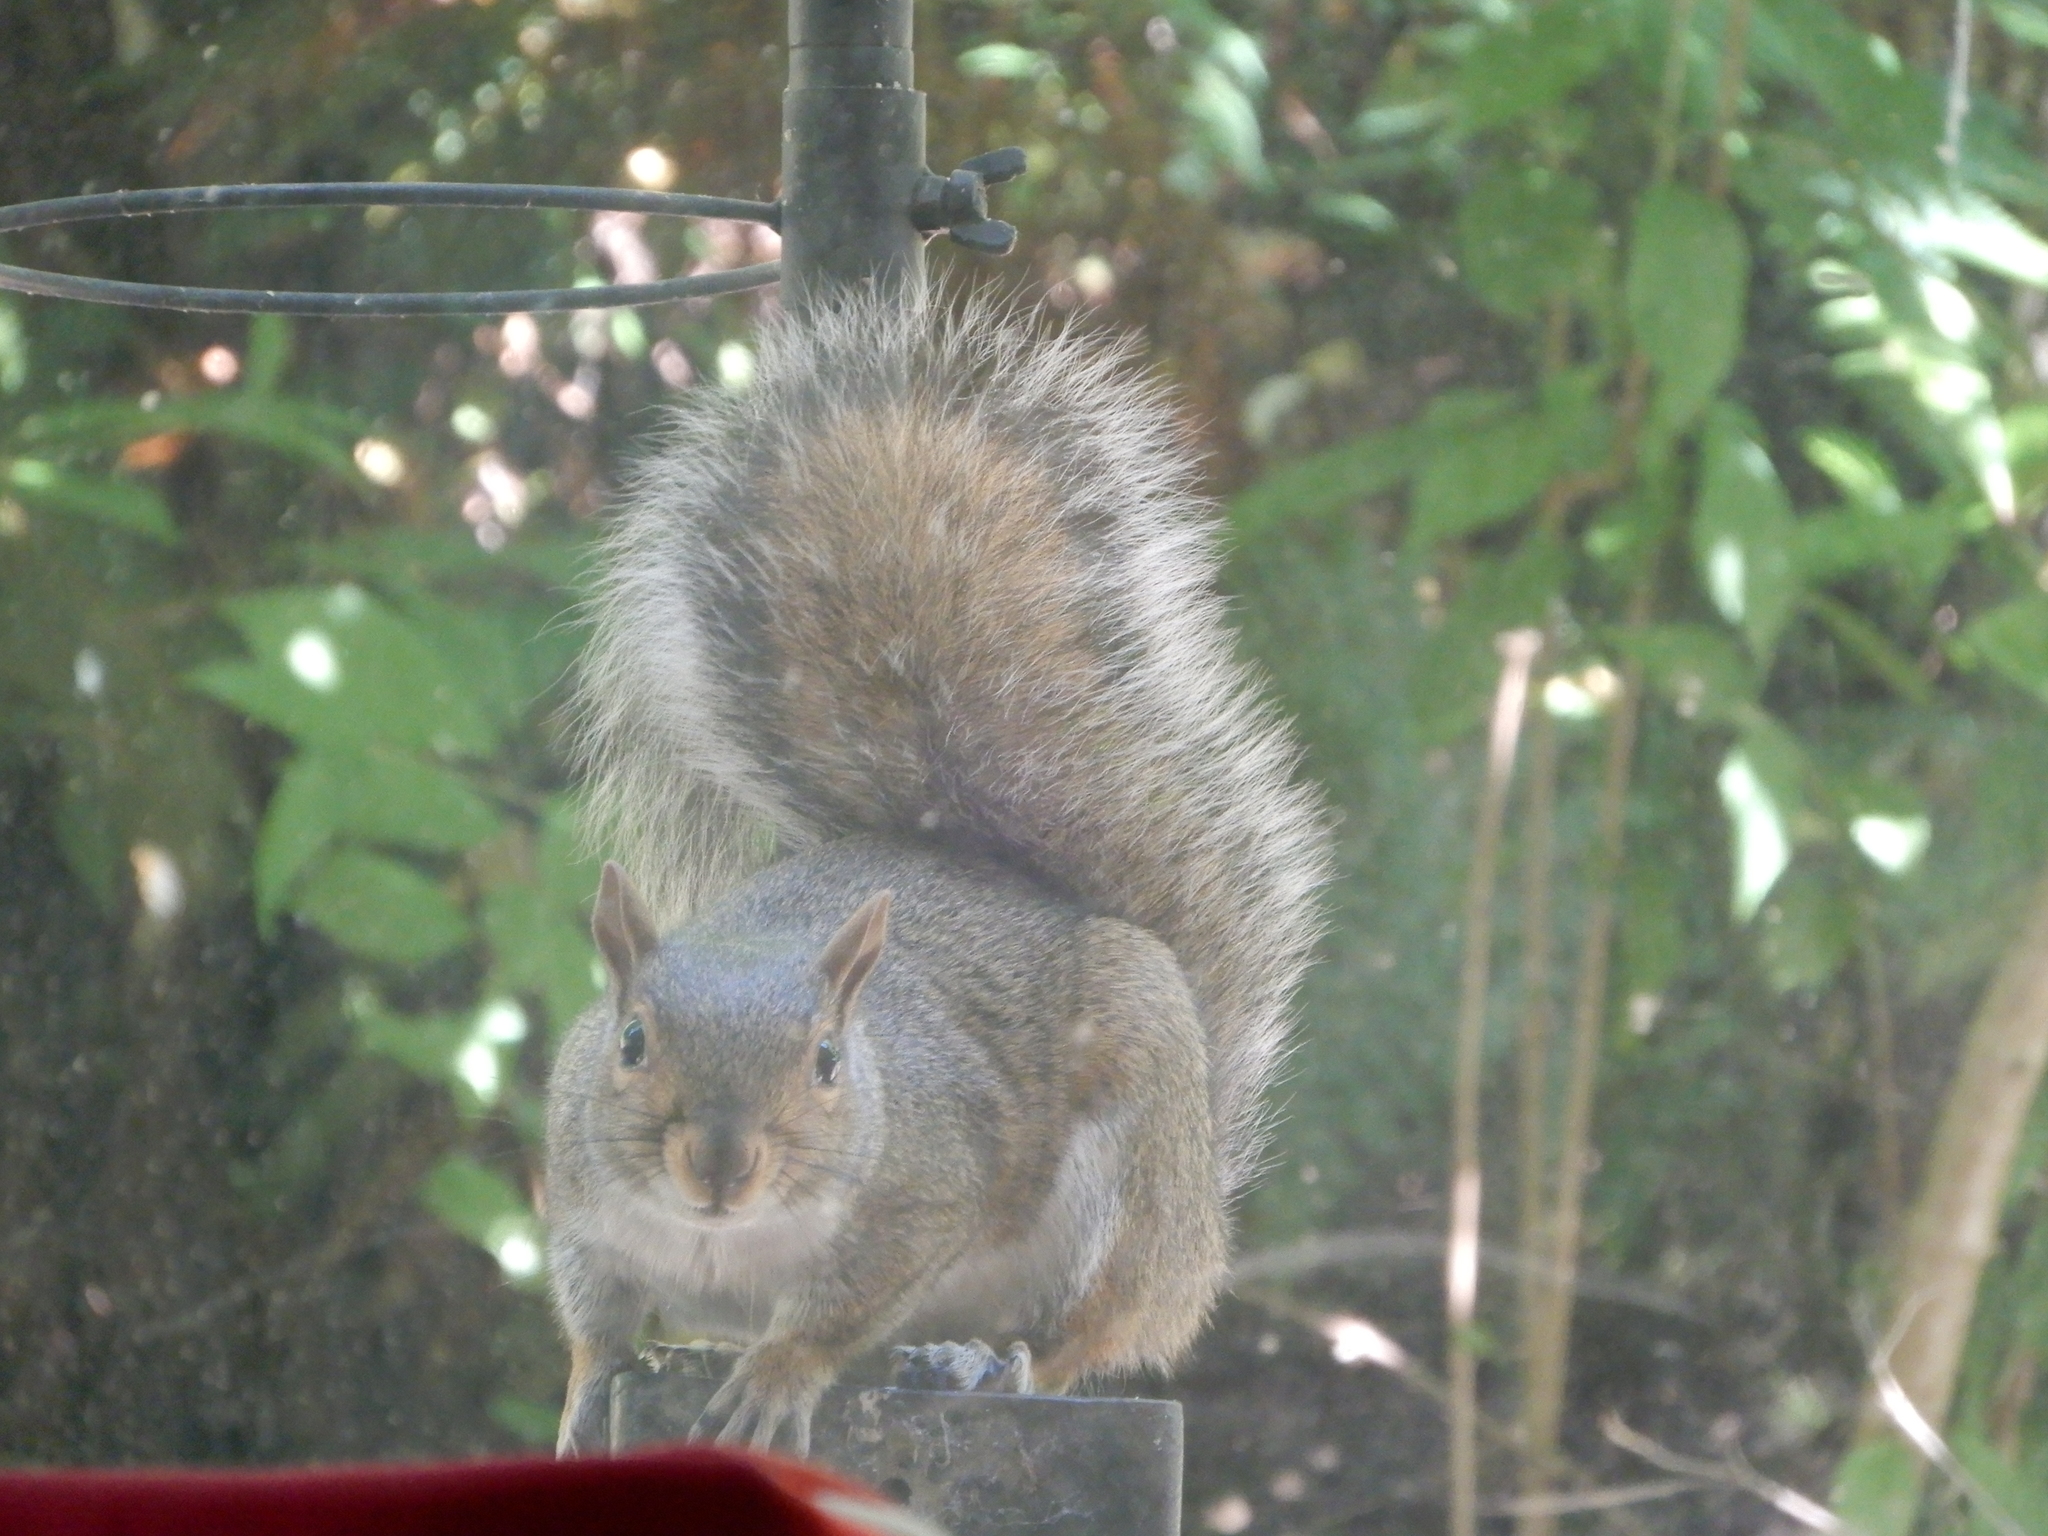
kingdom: Animalia
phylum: Chordata
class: Mammalia
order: Rodentia
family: Sciuridae
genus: Sciurus
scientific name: Sciurus carolinensis
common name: Eastern gray squirrel
